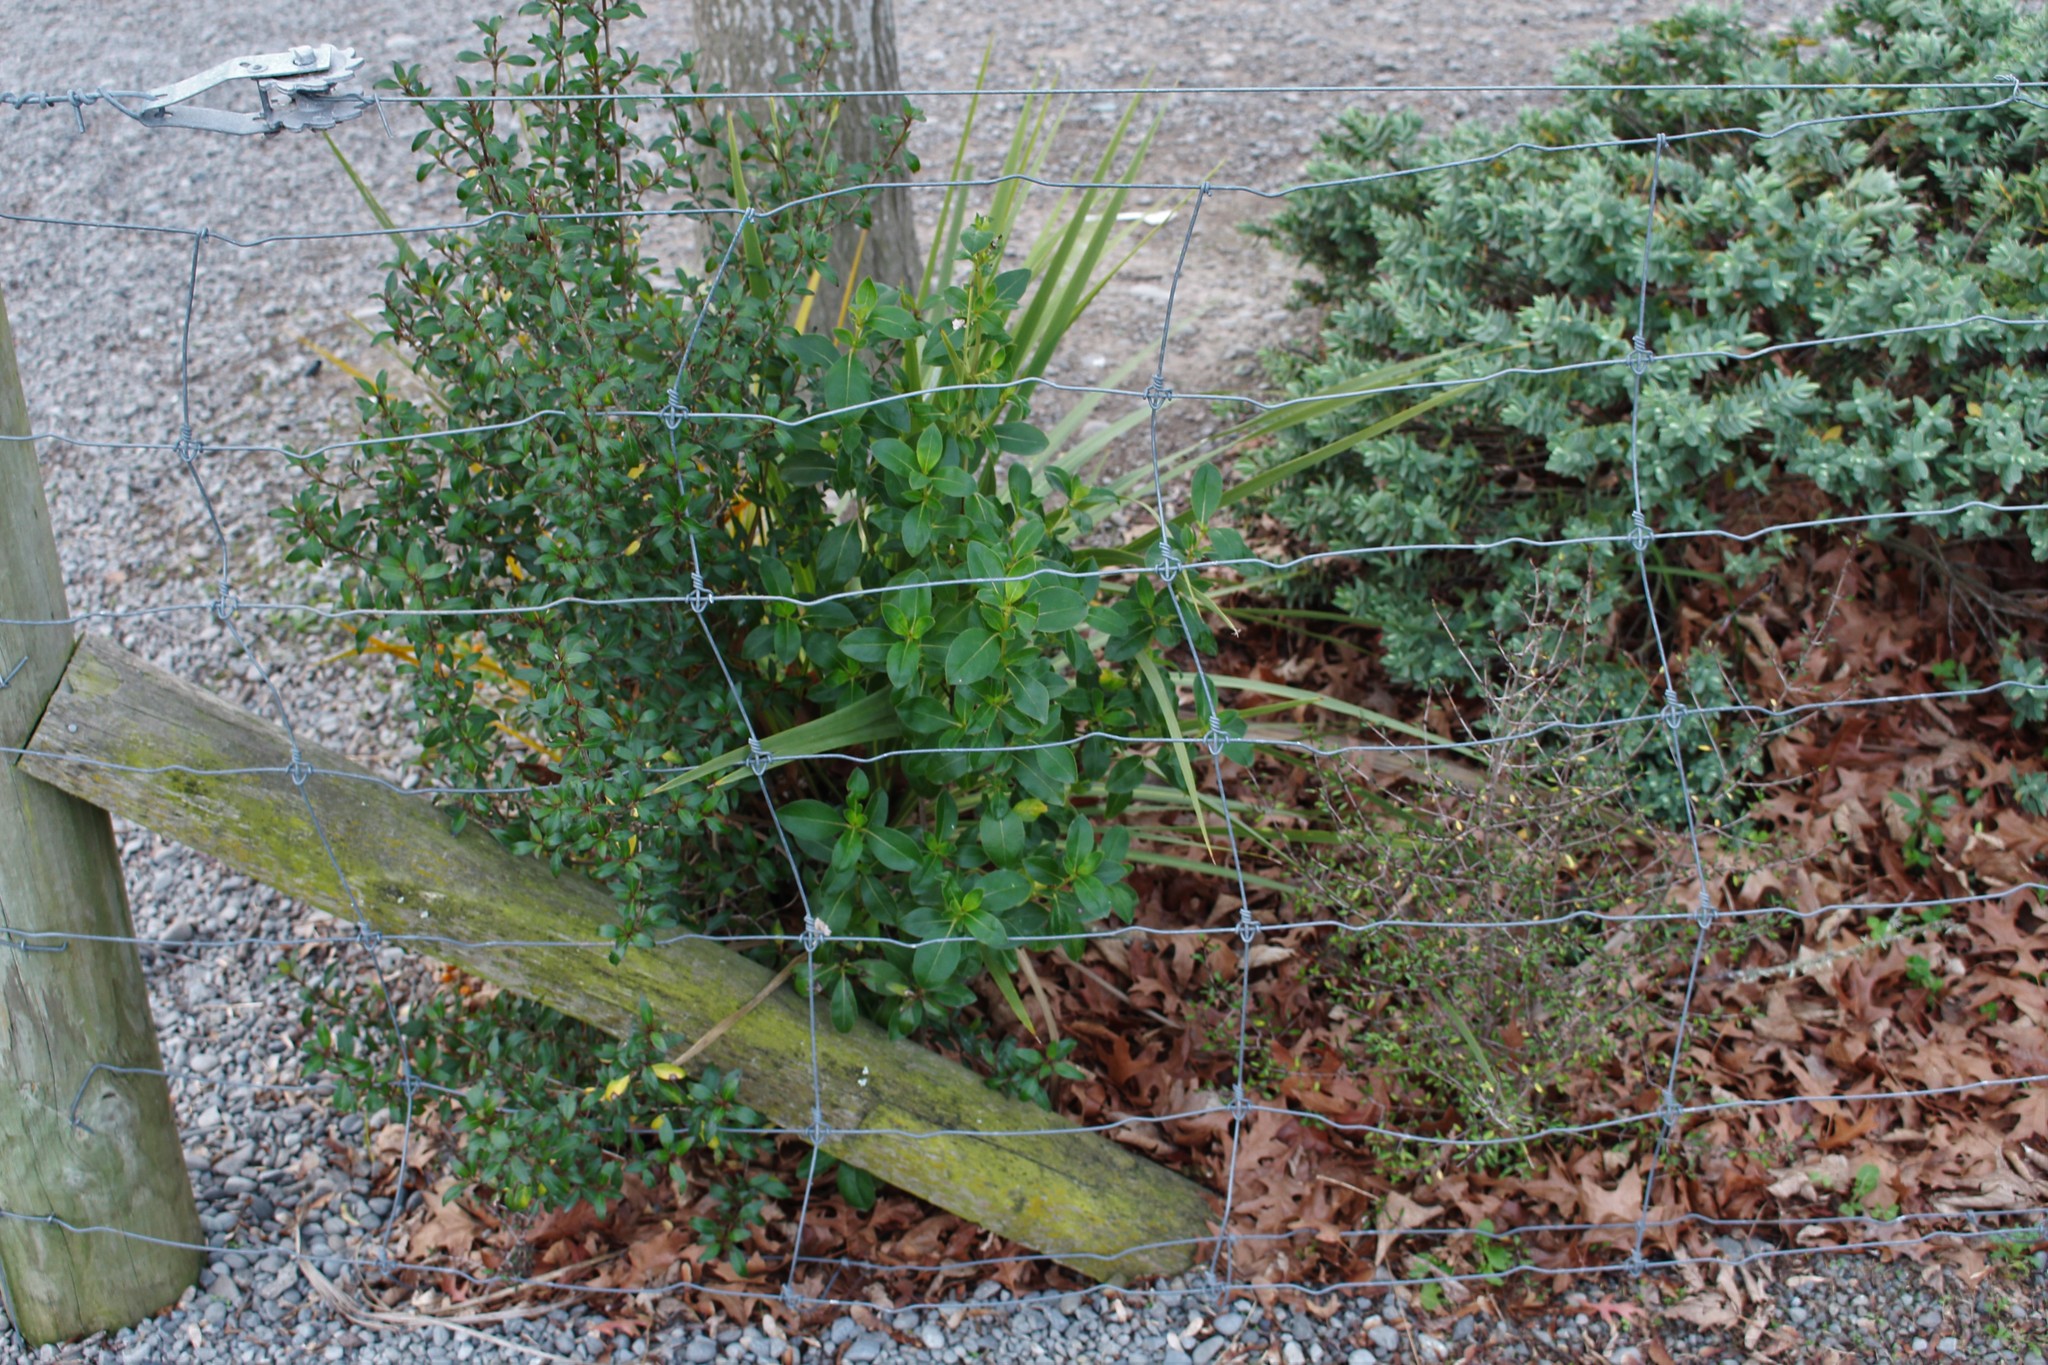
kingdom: Plantae
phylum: Tracheophyta
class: Magnoliopsida
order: Gentianales
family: Rubiaceae
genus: Coprosma
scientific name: Coprosma robusta
